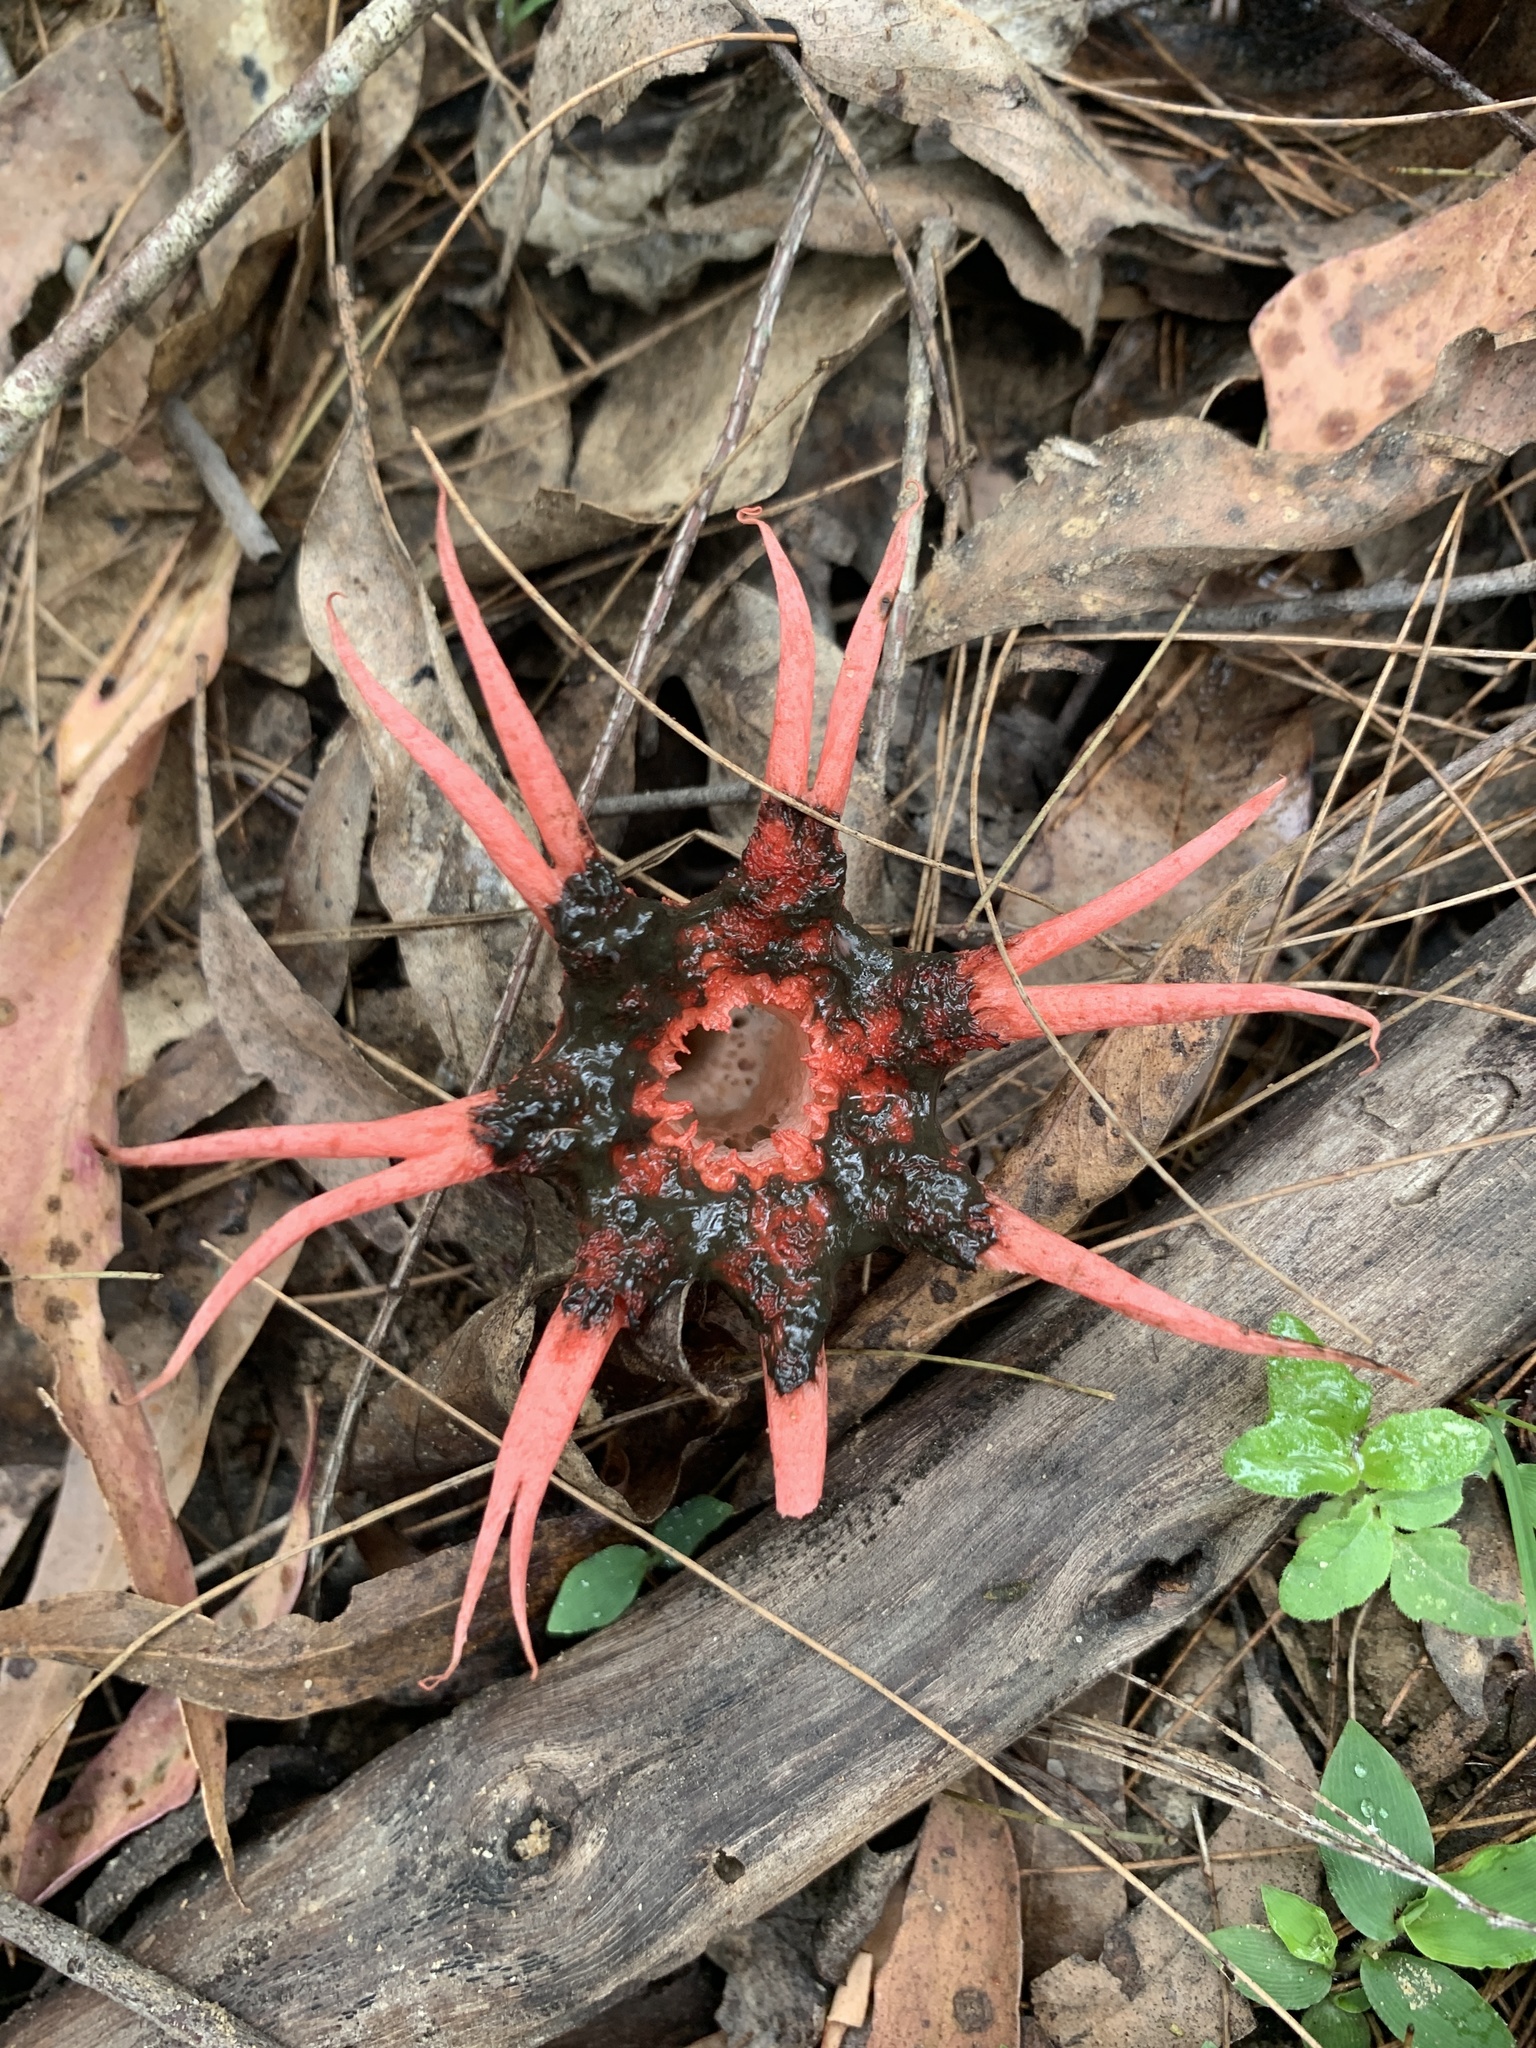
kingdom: Fungi
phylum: Basidiomycota
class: Agaricomycetes
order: Phallales
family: Phallaceae
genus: Aseroe
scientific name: Aseroe rubra
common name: Starfish fungus
